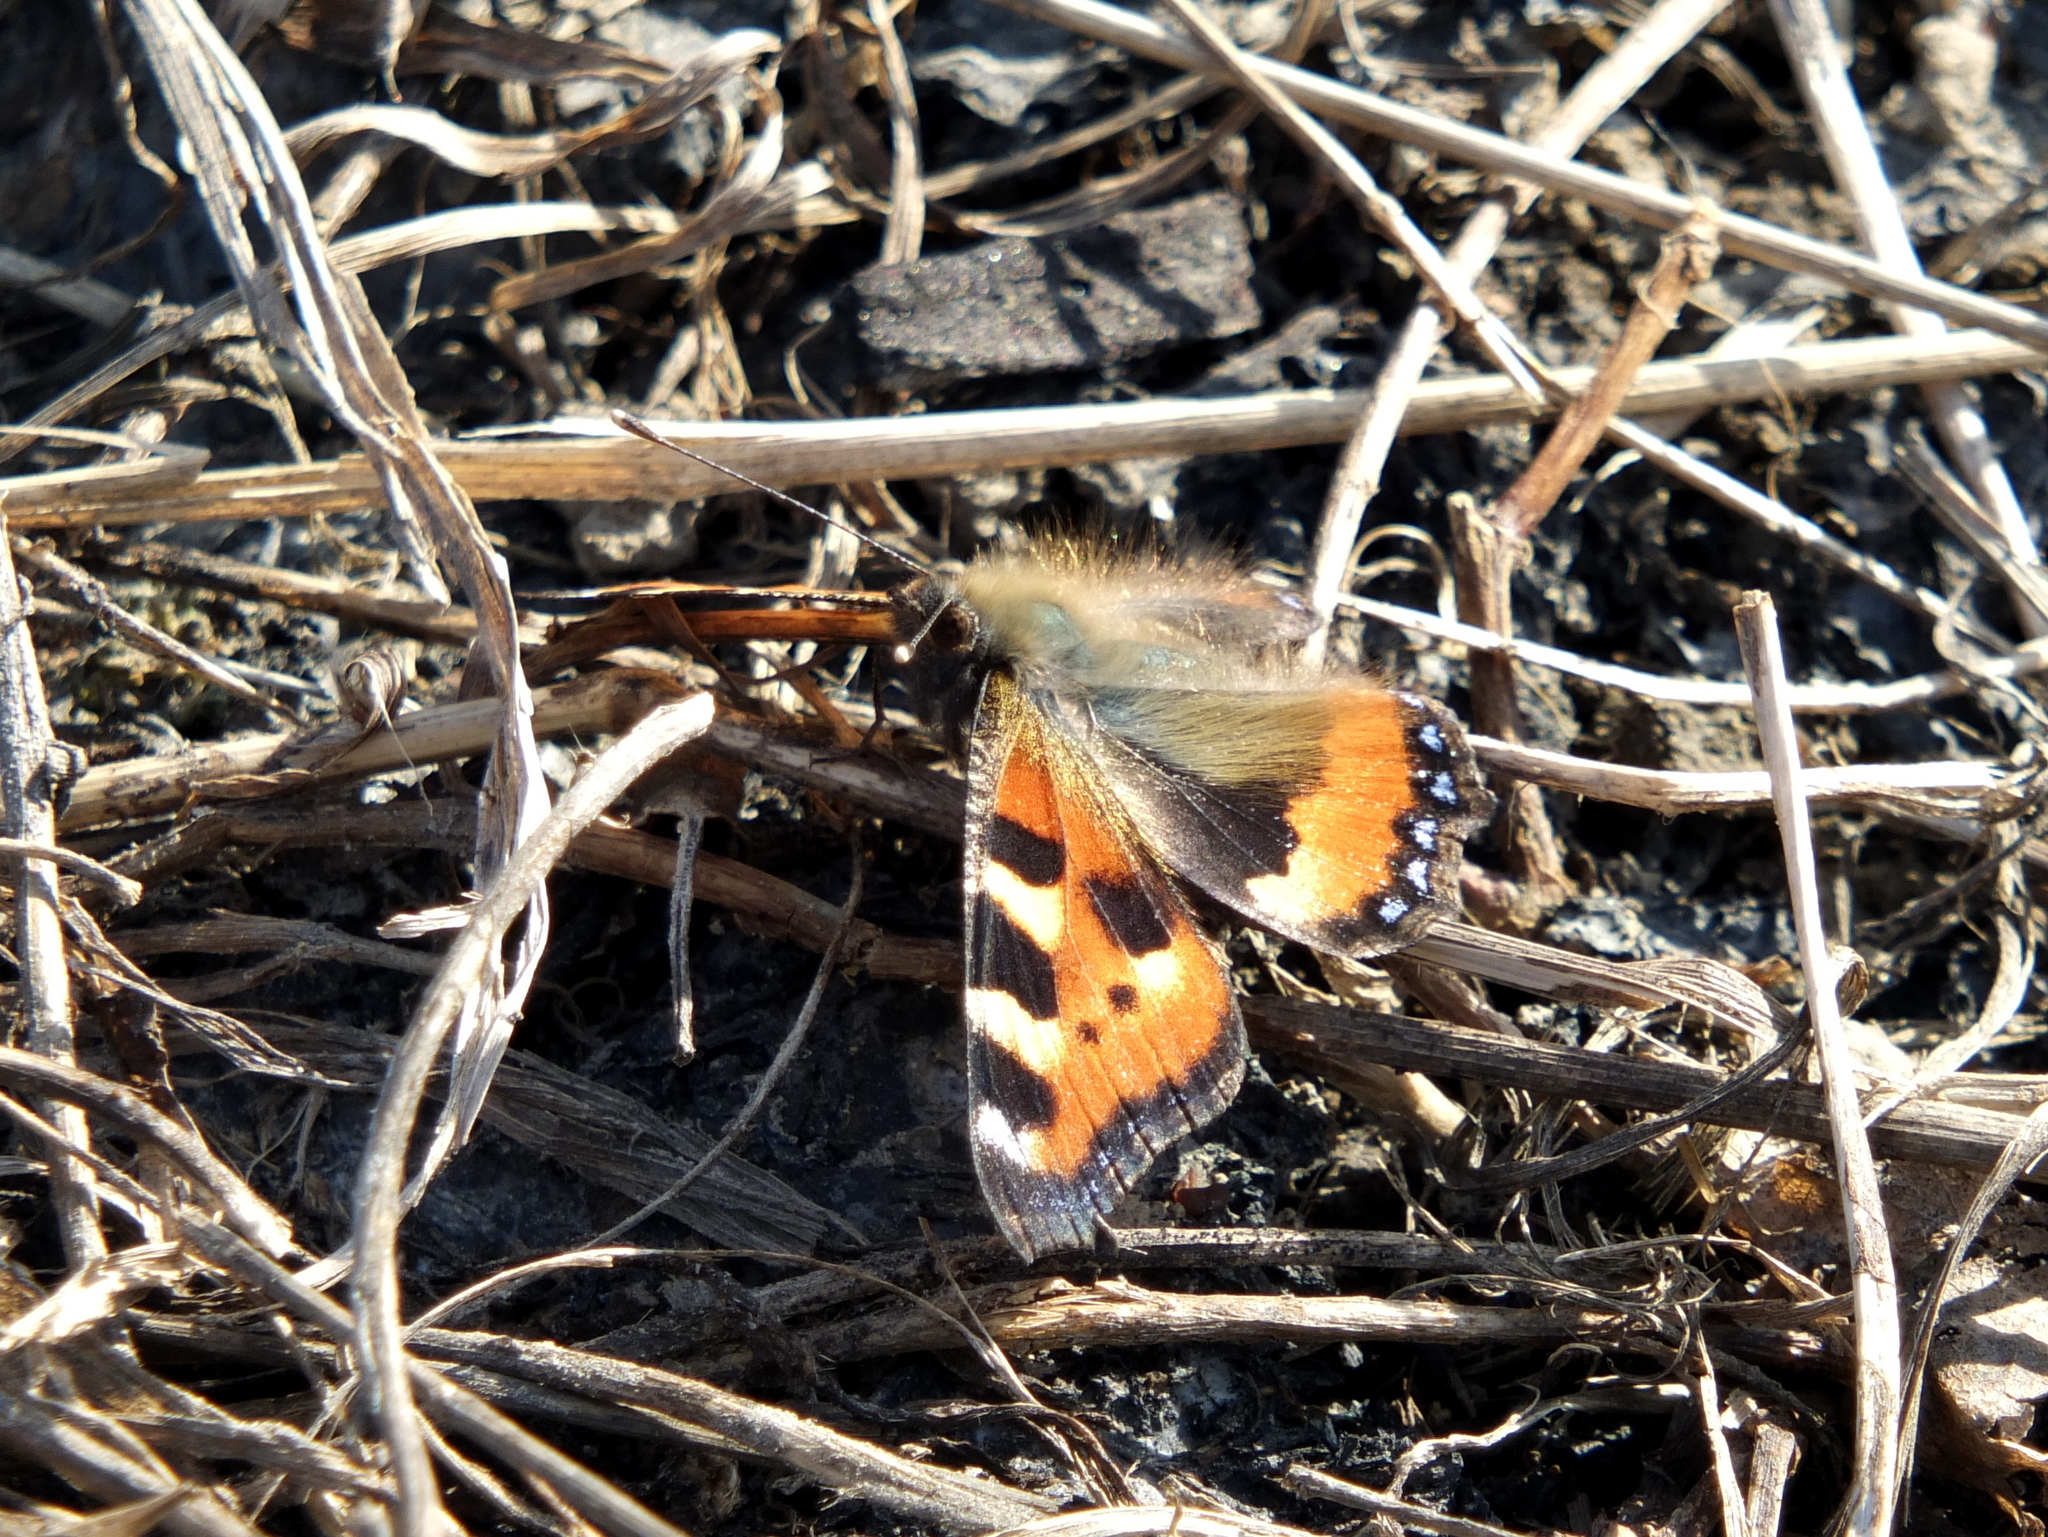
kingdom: Animalia
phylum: Arthropoda
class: Insecta
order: Lepidoptera
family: Nymphalidae
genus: Aglais
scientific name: Aglais urticae
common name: Small tortoiseshell
